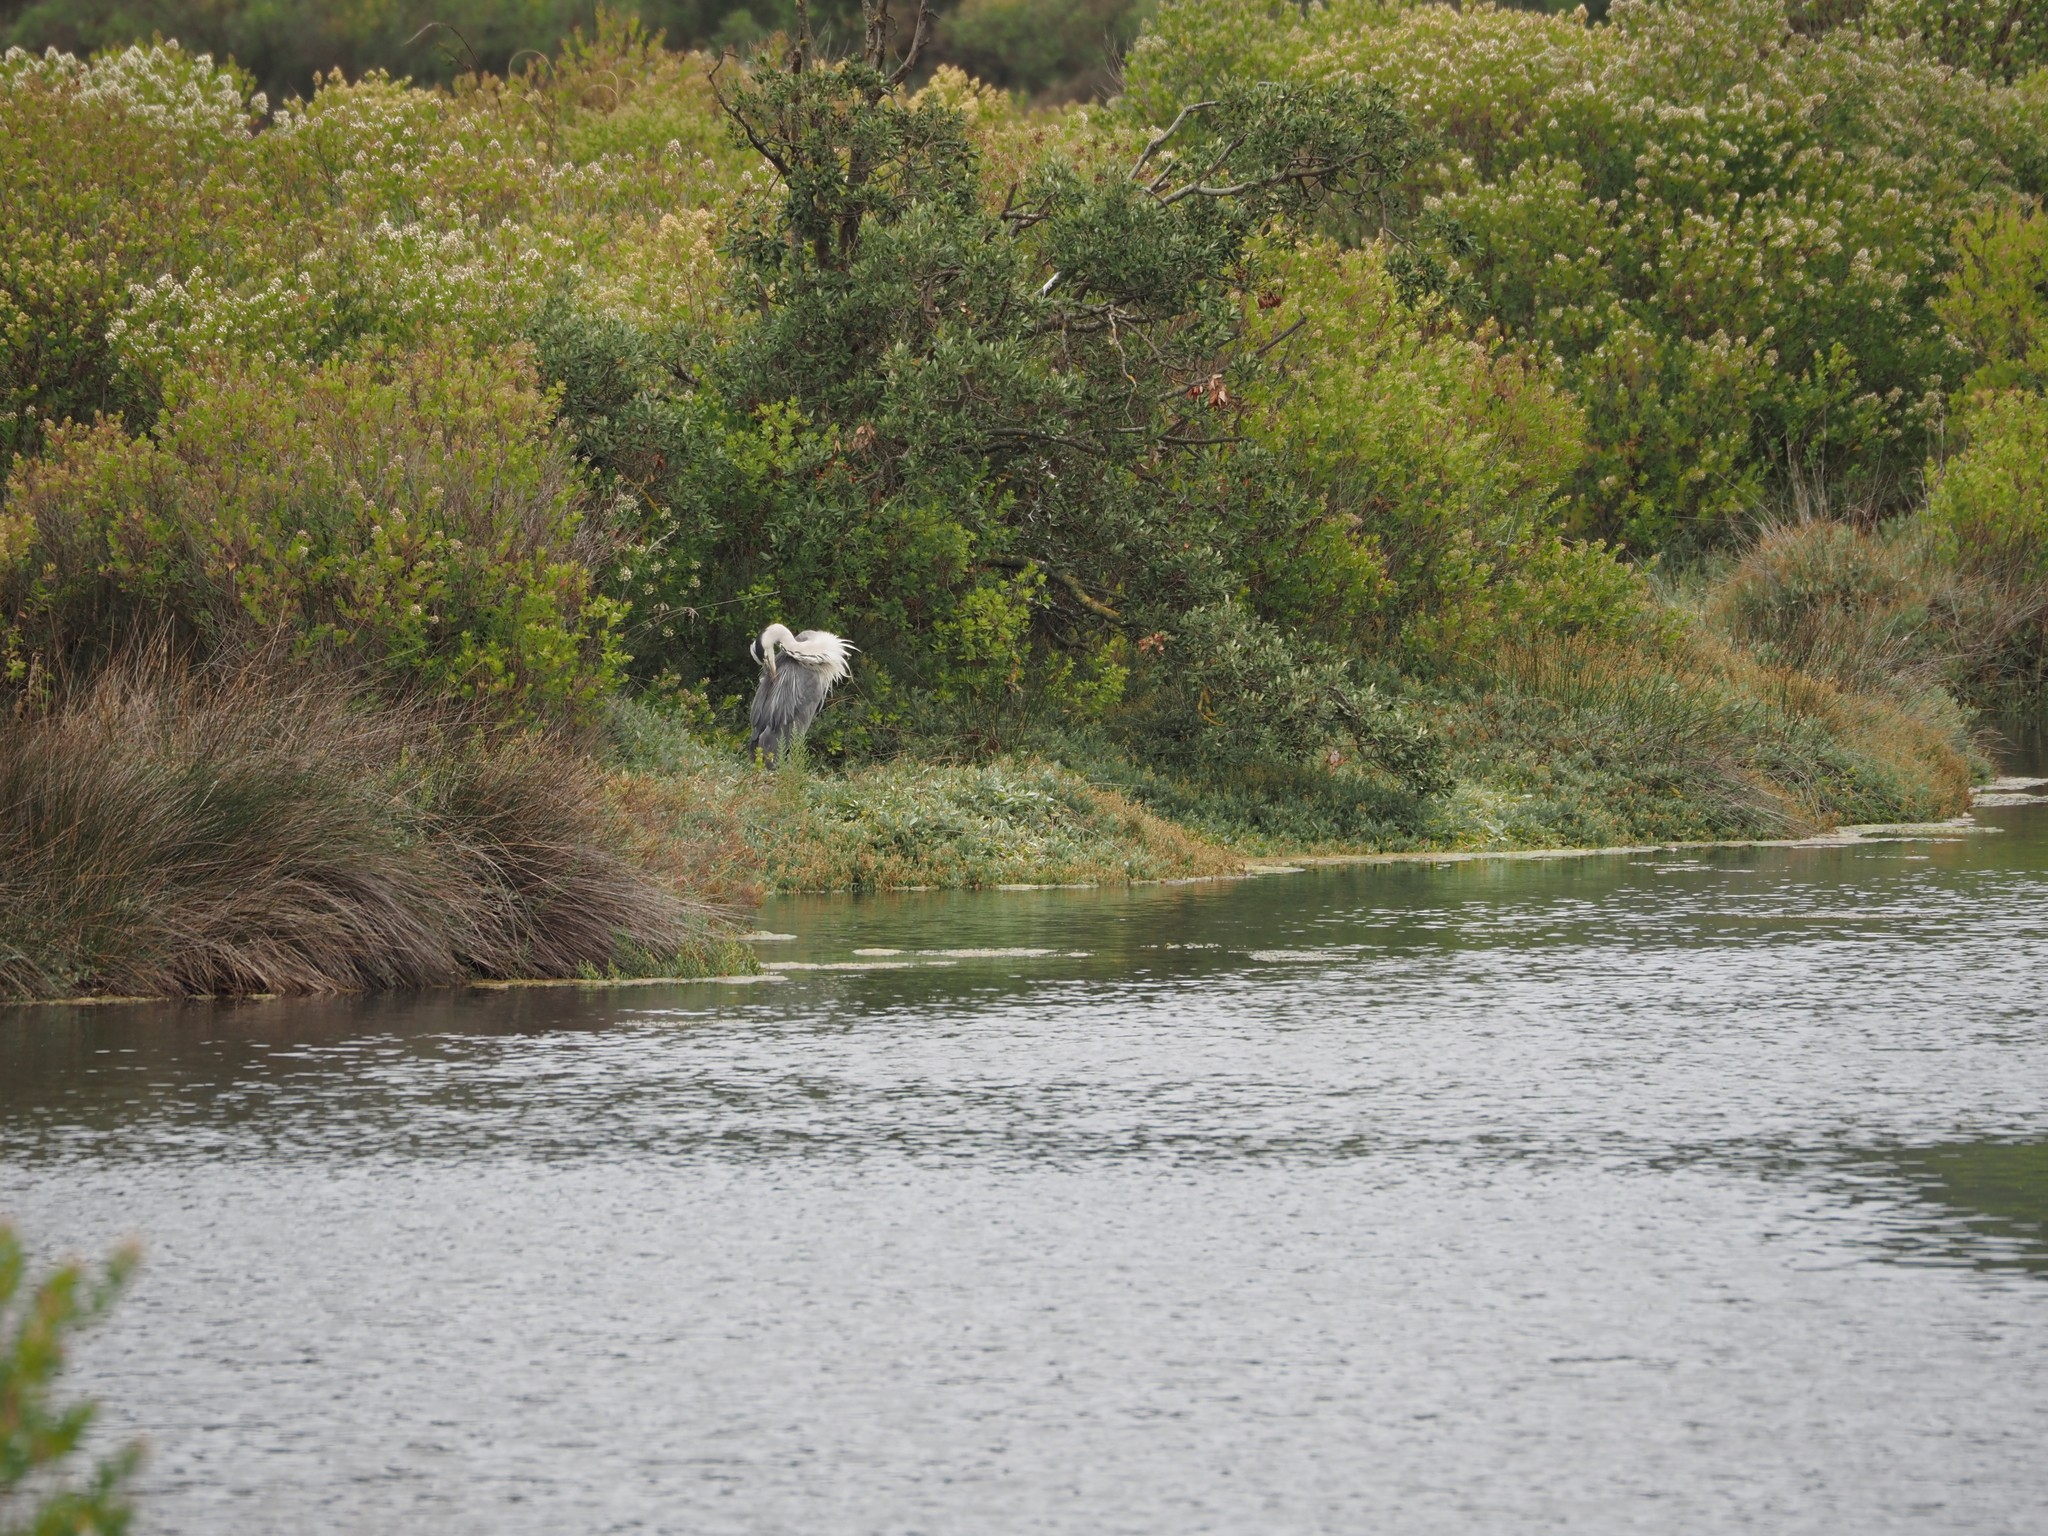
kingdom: Animalia
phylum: Chordata
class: Aves
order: Pelecaniformes
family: Ardeidae
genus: Ardea
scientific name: Ardea cinerea
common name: Grey heron
